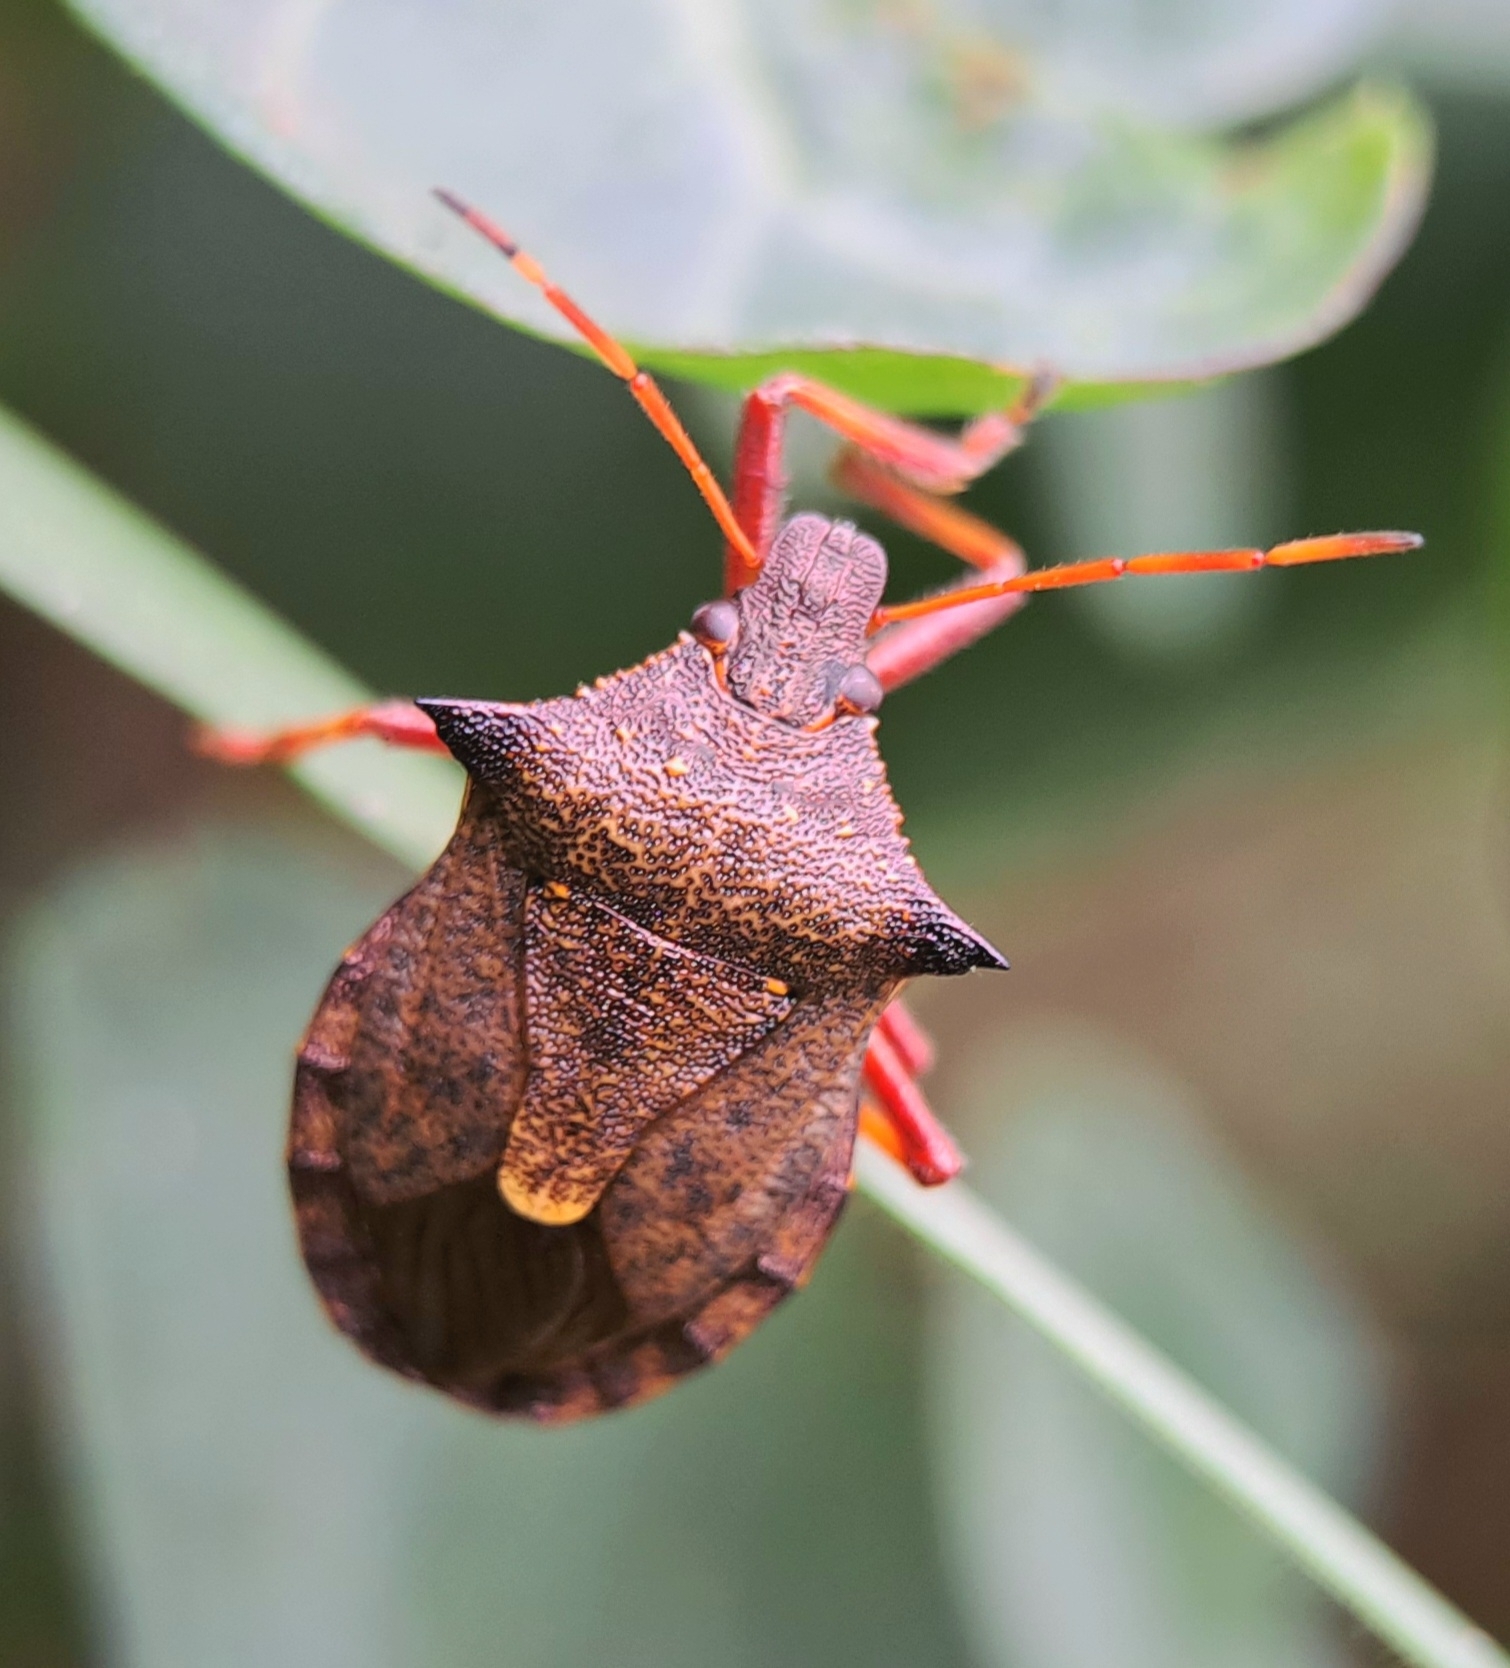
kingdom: Animalia
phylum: Arthropoda
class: Insecta
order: Hemiptera
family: Pentatomidae
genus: Picromerus
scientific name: Picromerus bidens
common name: Spiked shieldbug
